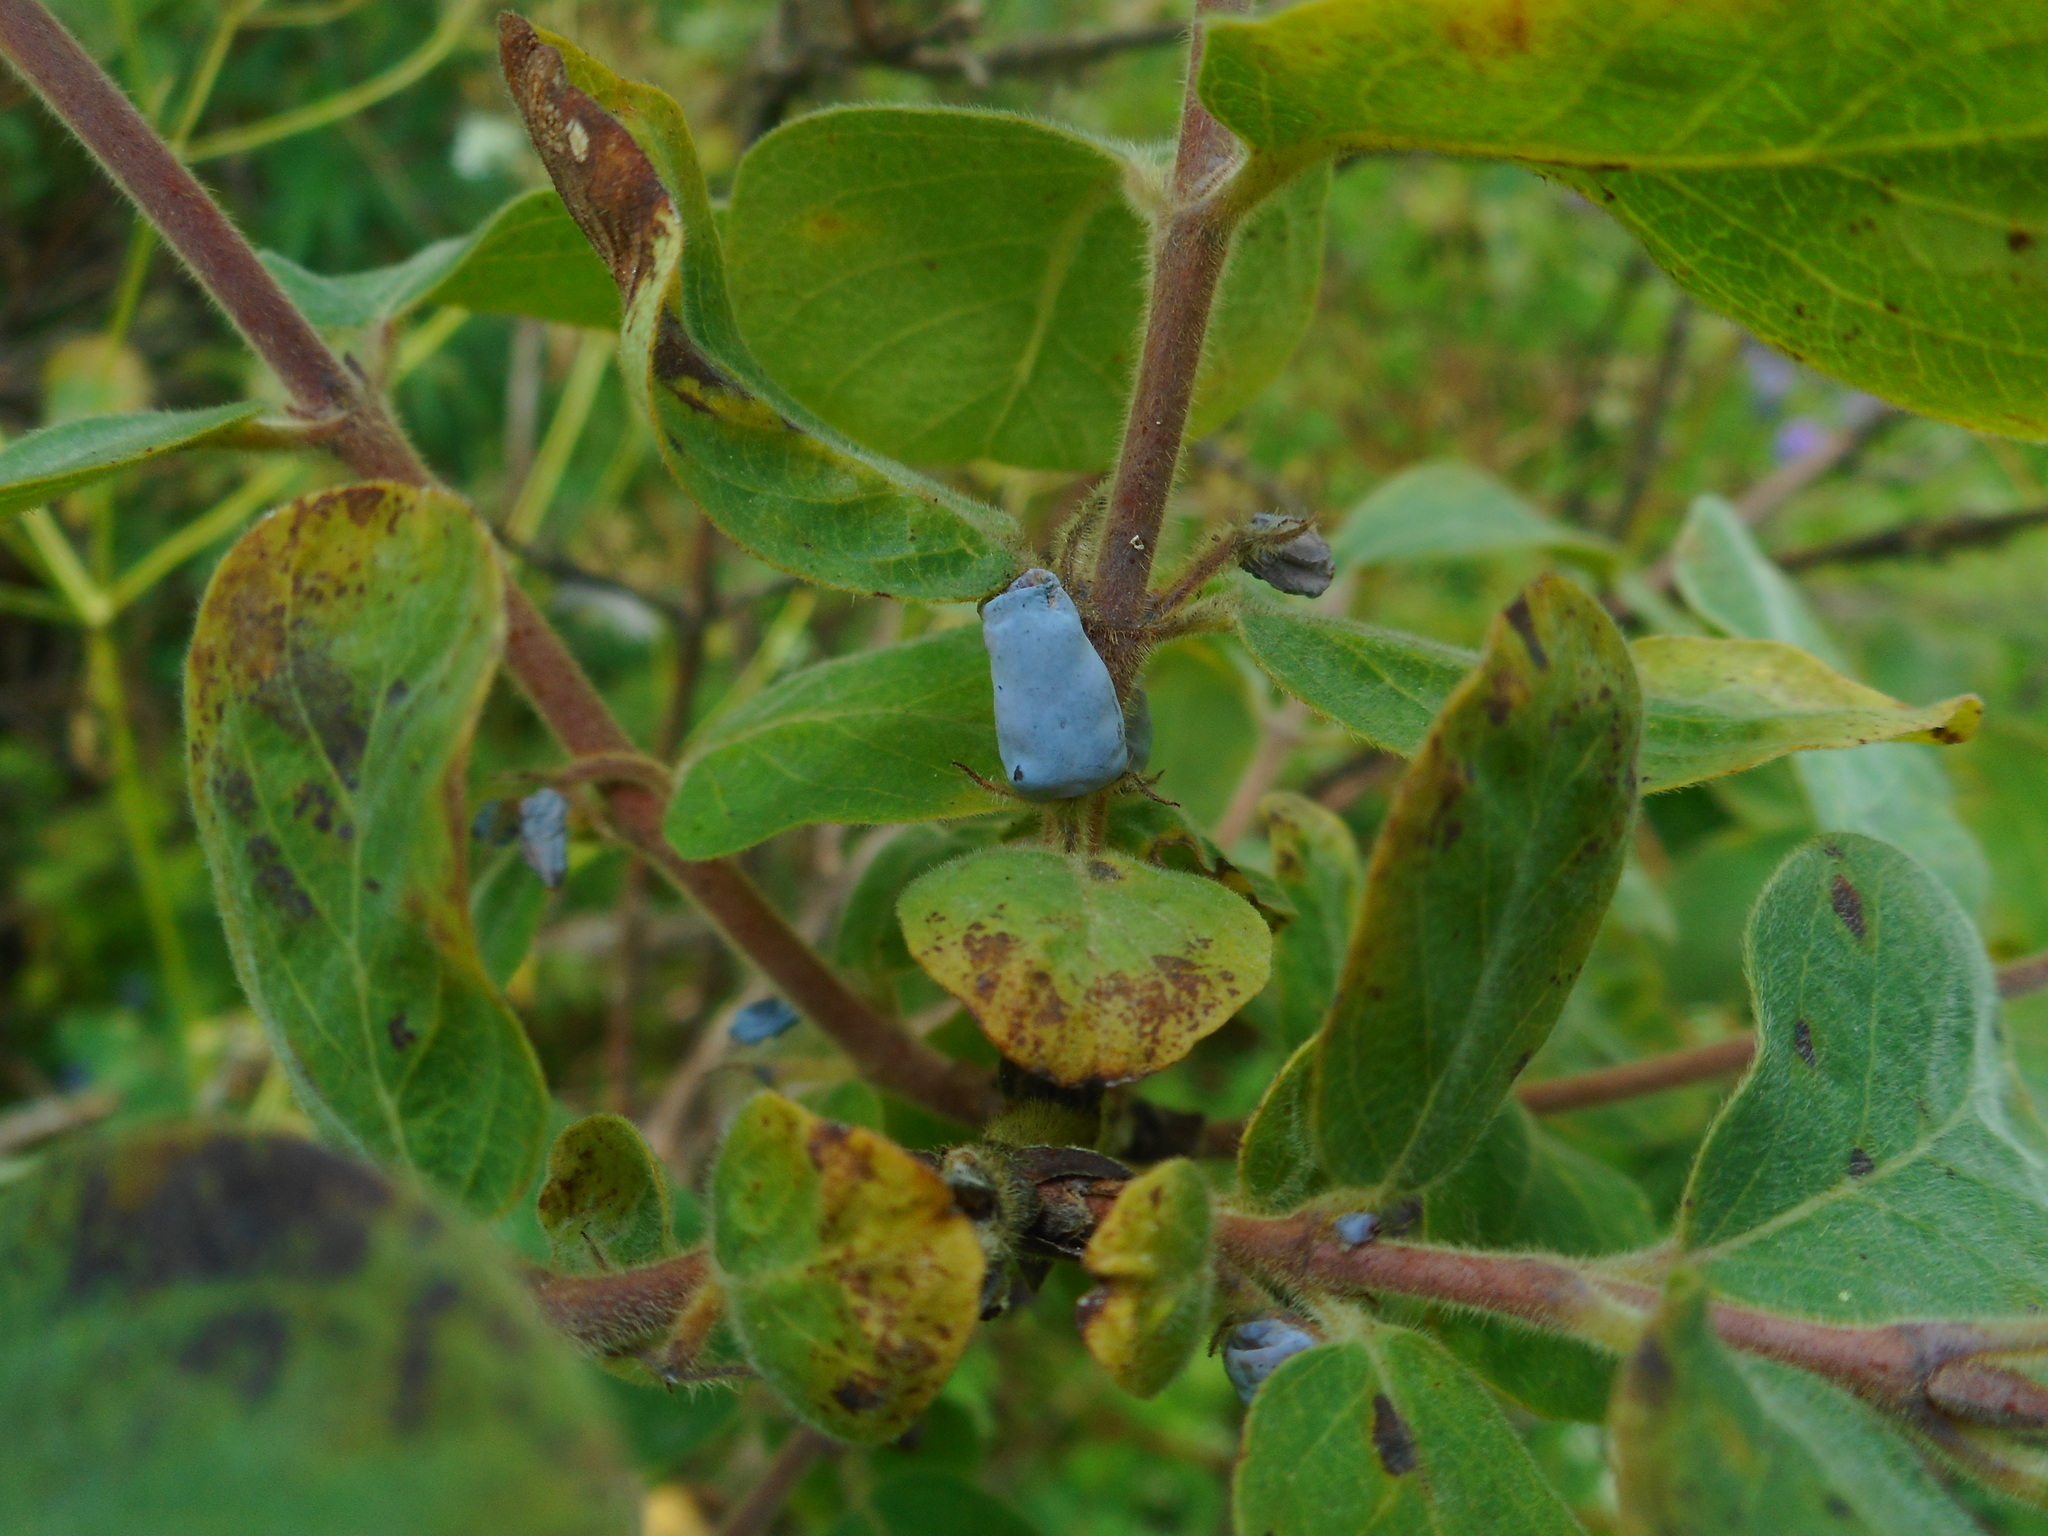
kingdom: Plantae
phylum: Tracheophyta
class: Magnoliopsida
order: Dipsacales
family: Caprifoliaceae
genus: Lonicera
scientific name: Lonicera caerulea
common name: Blue honeysuckle
